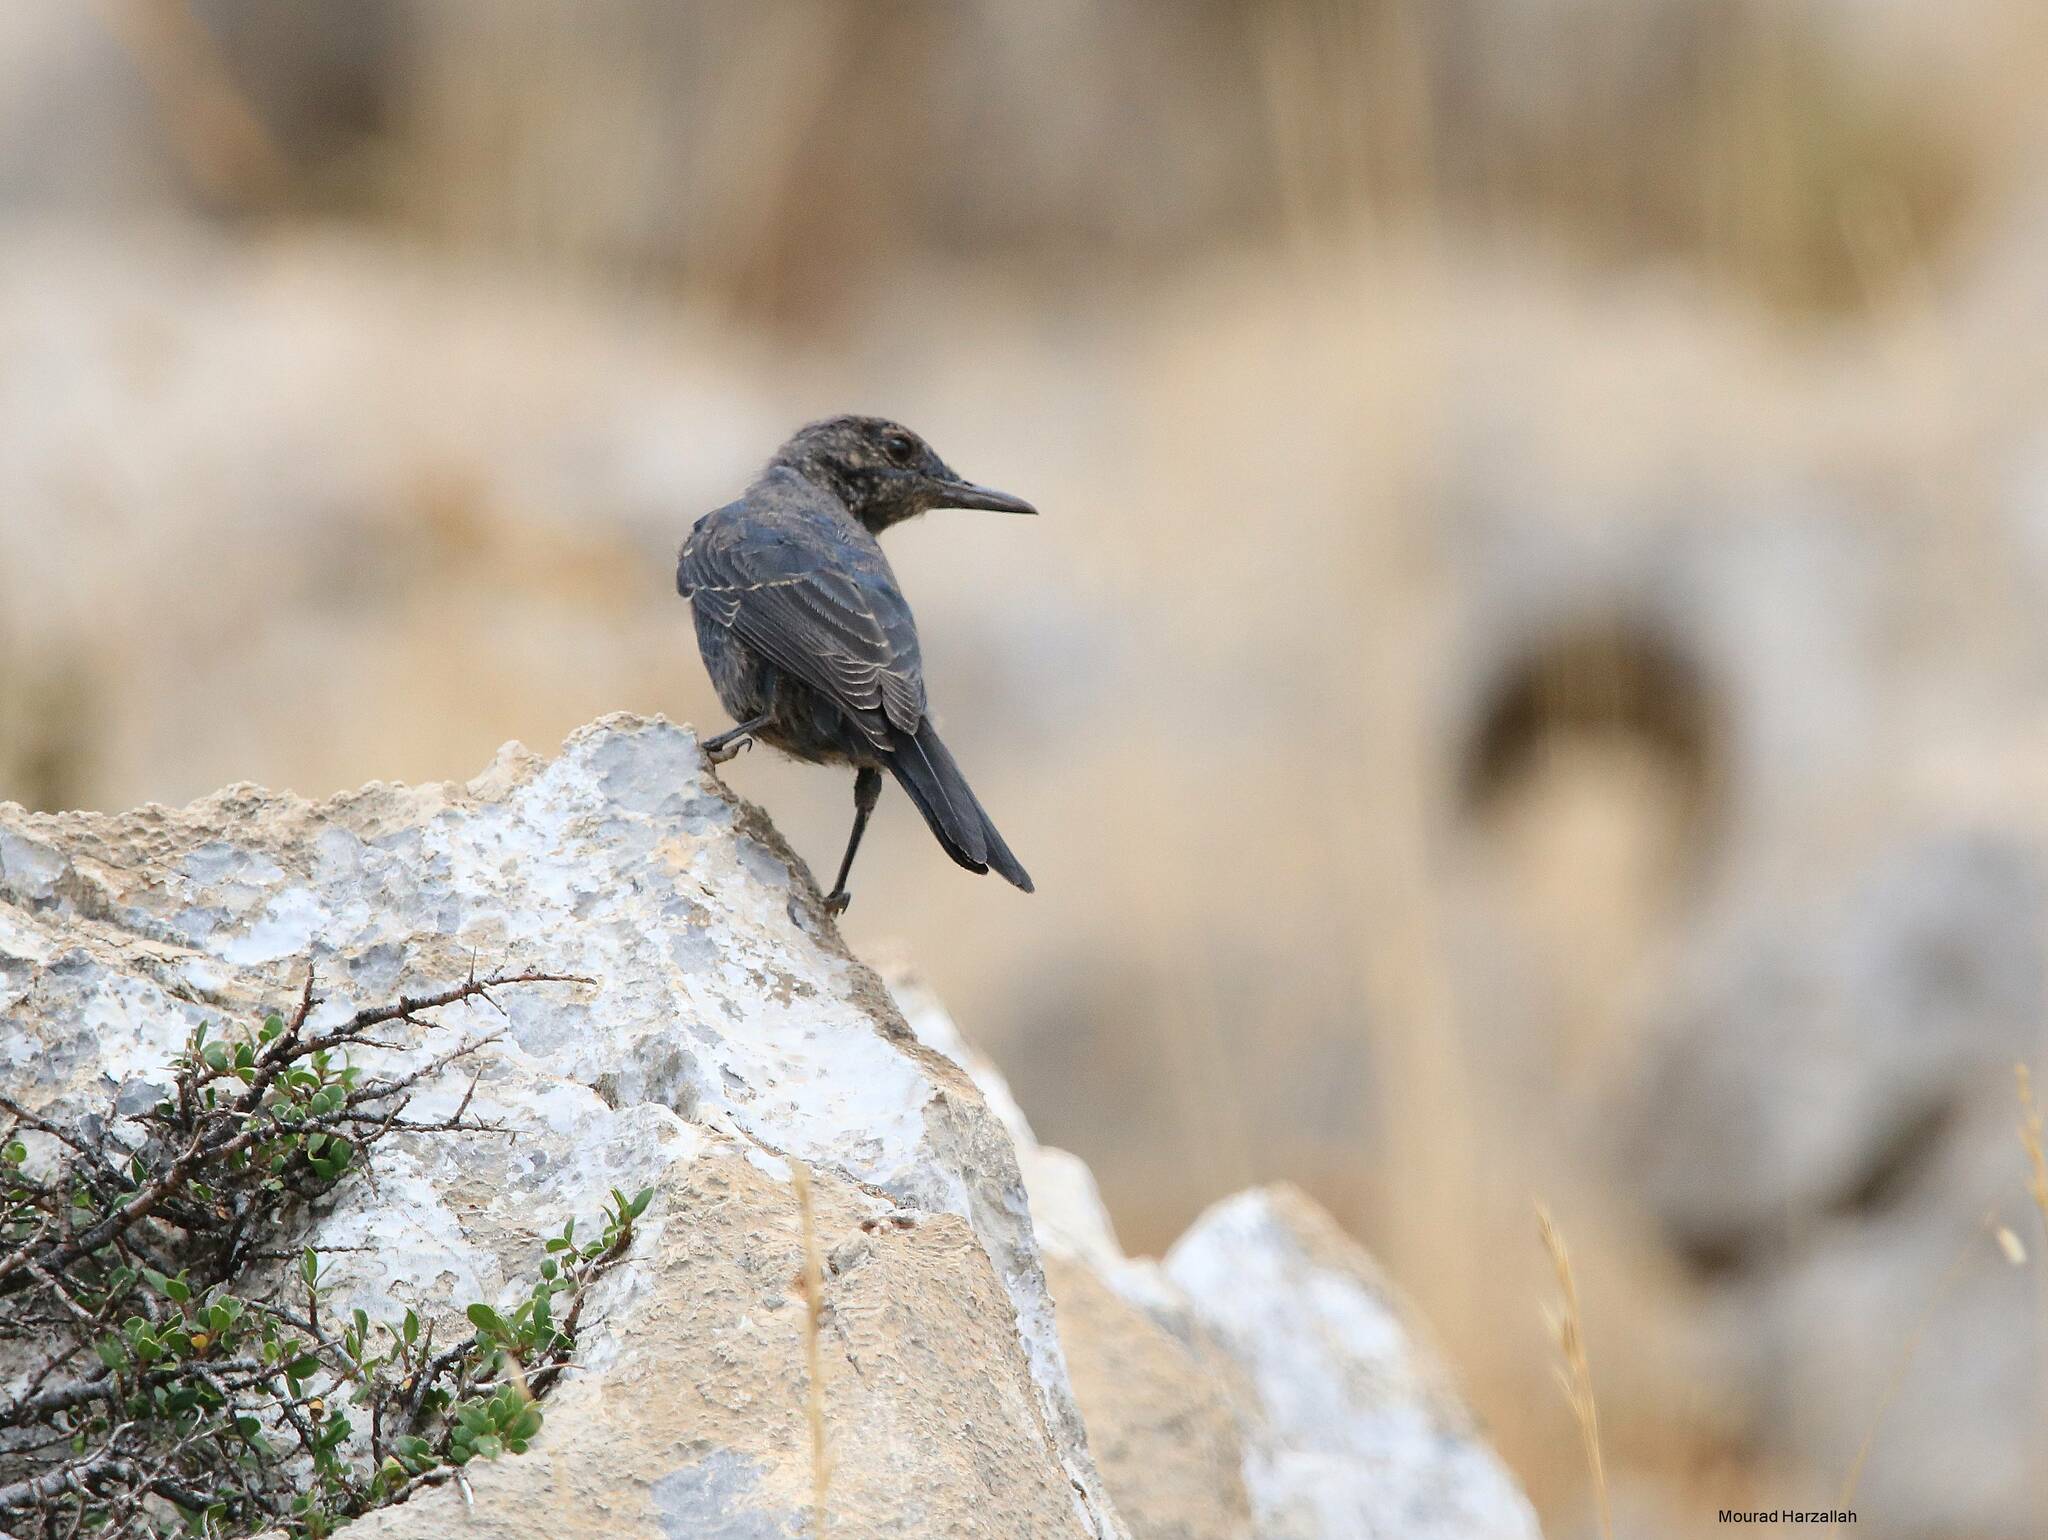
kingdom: Animalia
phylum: Chordata
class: Aves
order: Passeriformes
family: Muscicapidae
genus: Monticola
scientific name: Monticola solitarius
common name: Blue rock thrush
